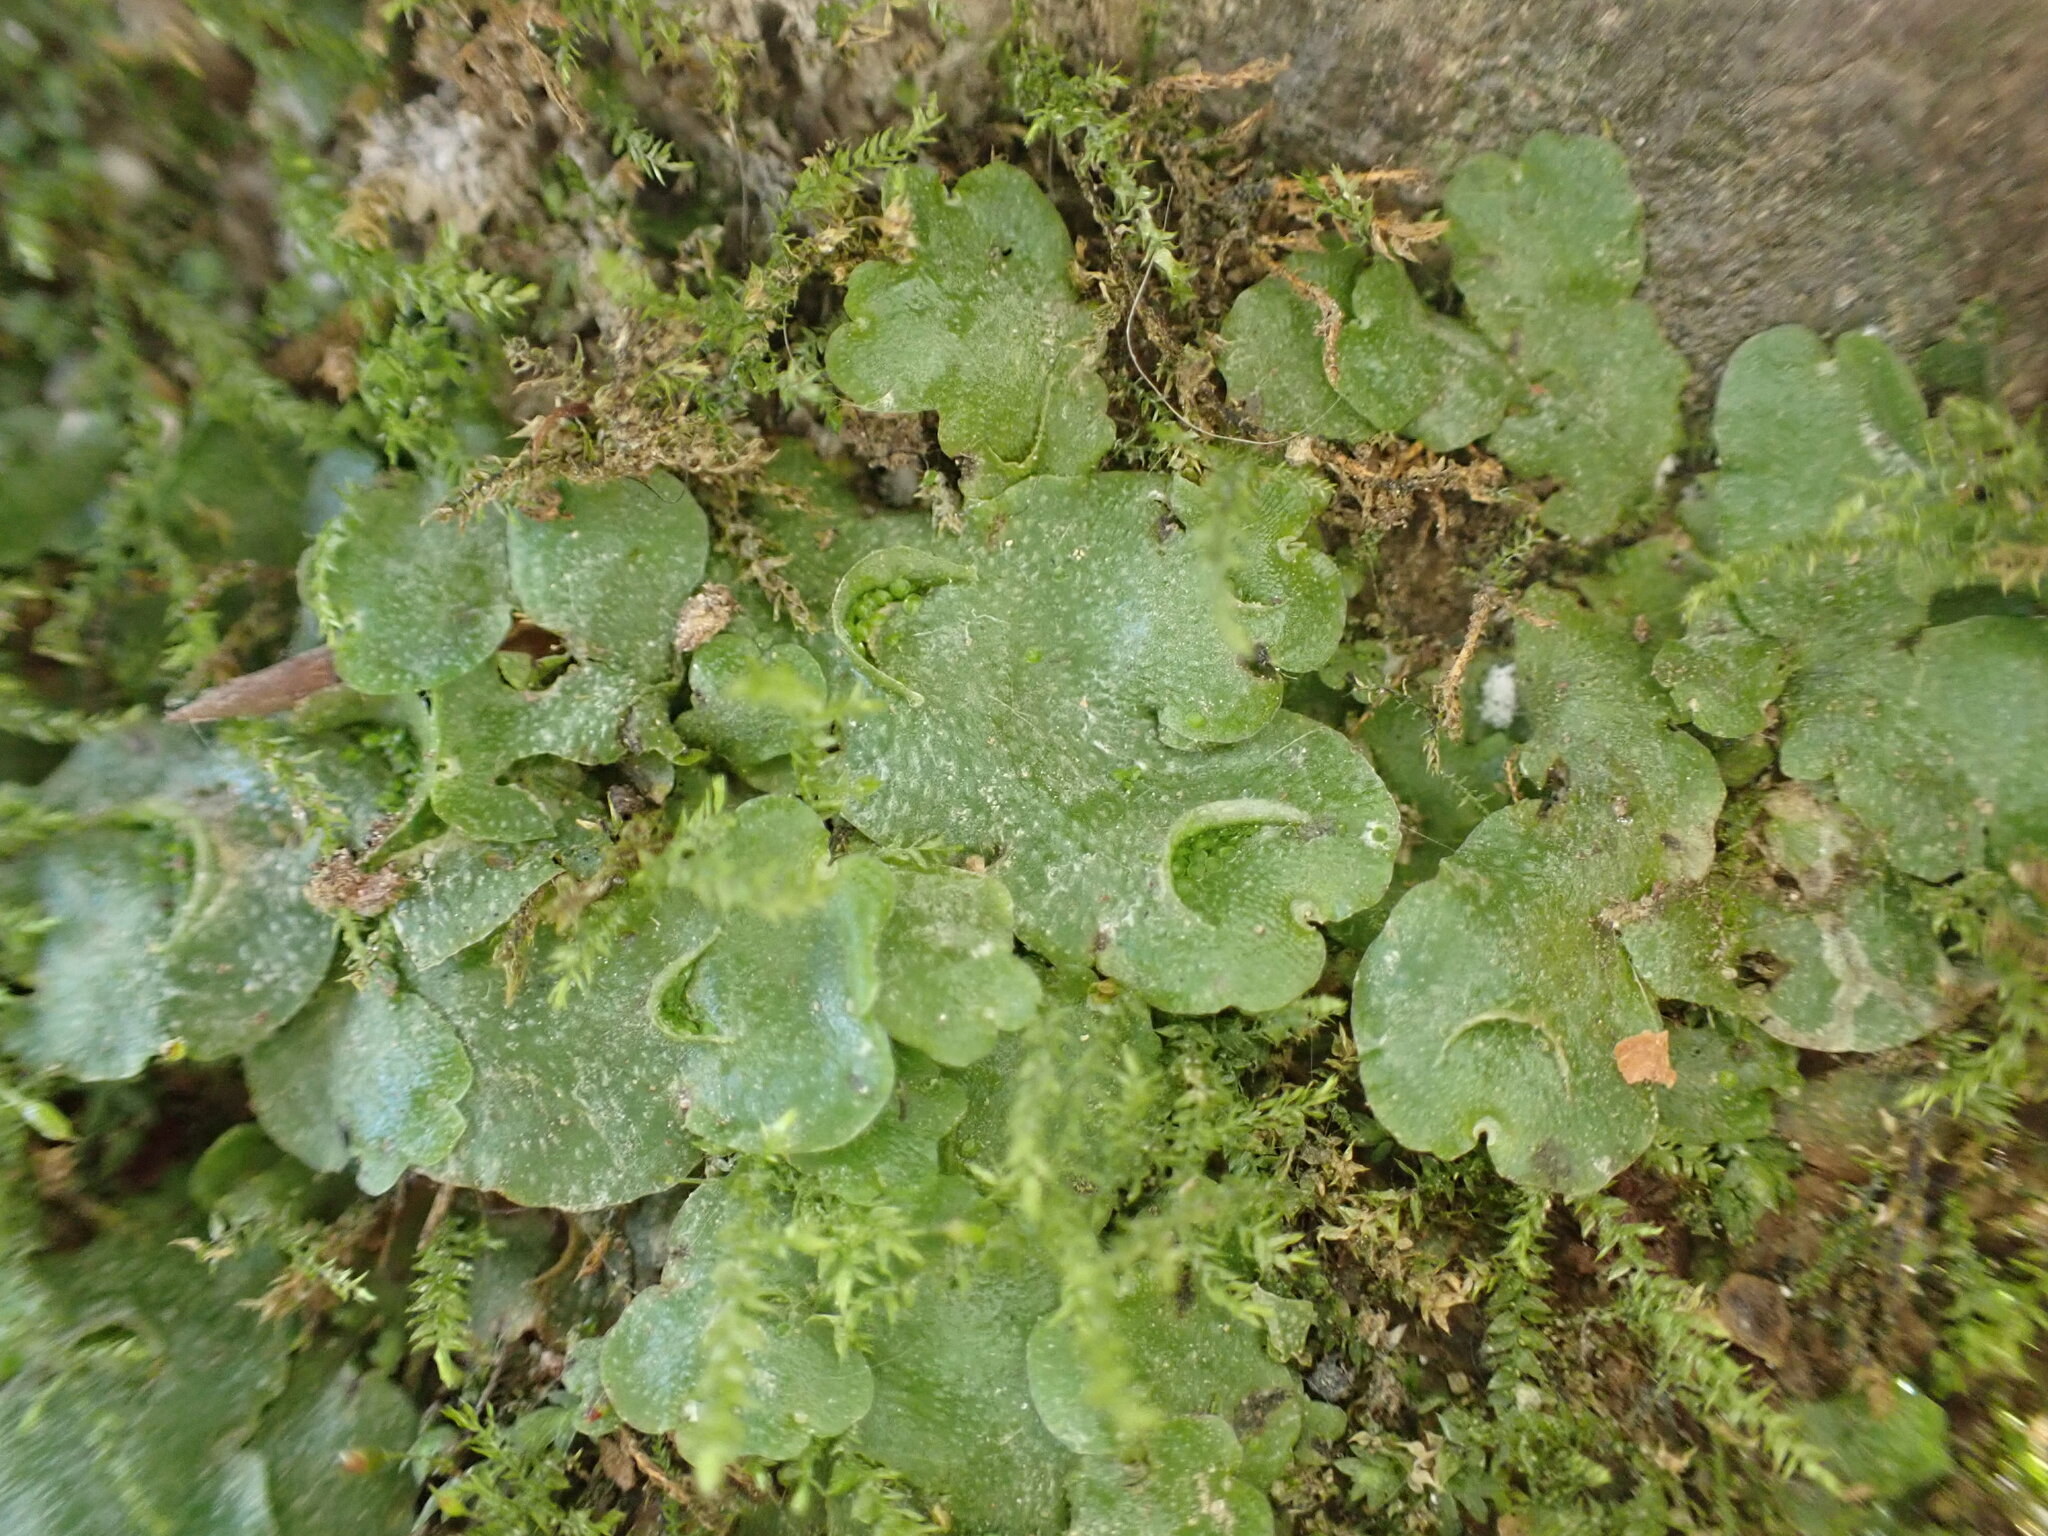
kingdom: Plantae
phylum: Marchantiophyta
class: Marchantiopsida
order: Lunulariales
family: Lunulariaceae
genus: Lunularia
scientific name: Lunularia cruciata
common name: Crescent-cup liverwort
